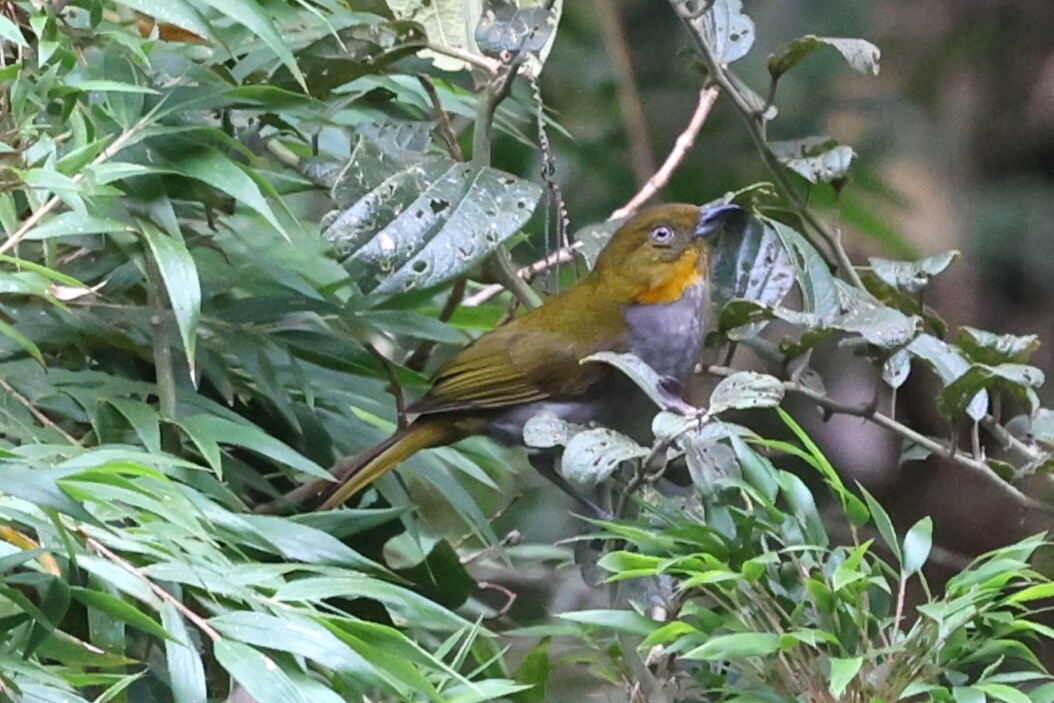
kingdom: Animalia
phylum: Chordata
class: Aves
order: Passeriformes
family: Passerellidae
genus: Chlorospingus
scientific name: Chlorospingus parvirostris
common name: Yellow-whiskered bush tanager
